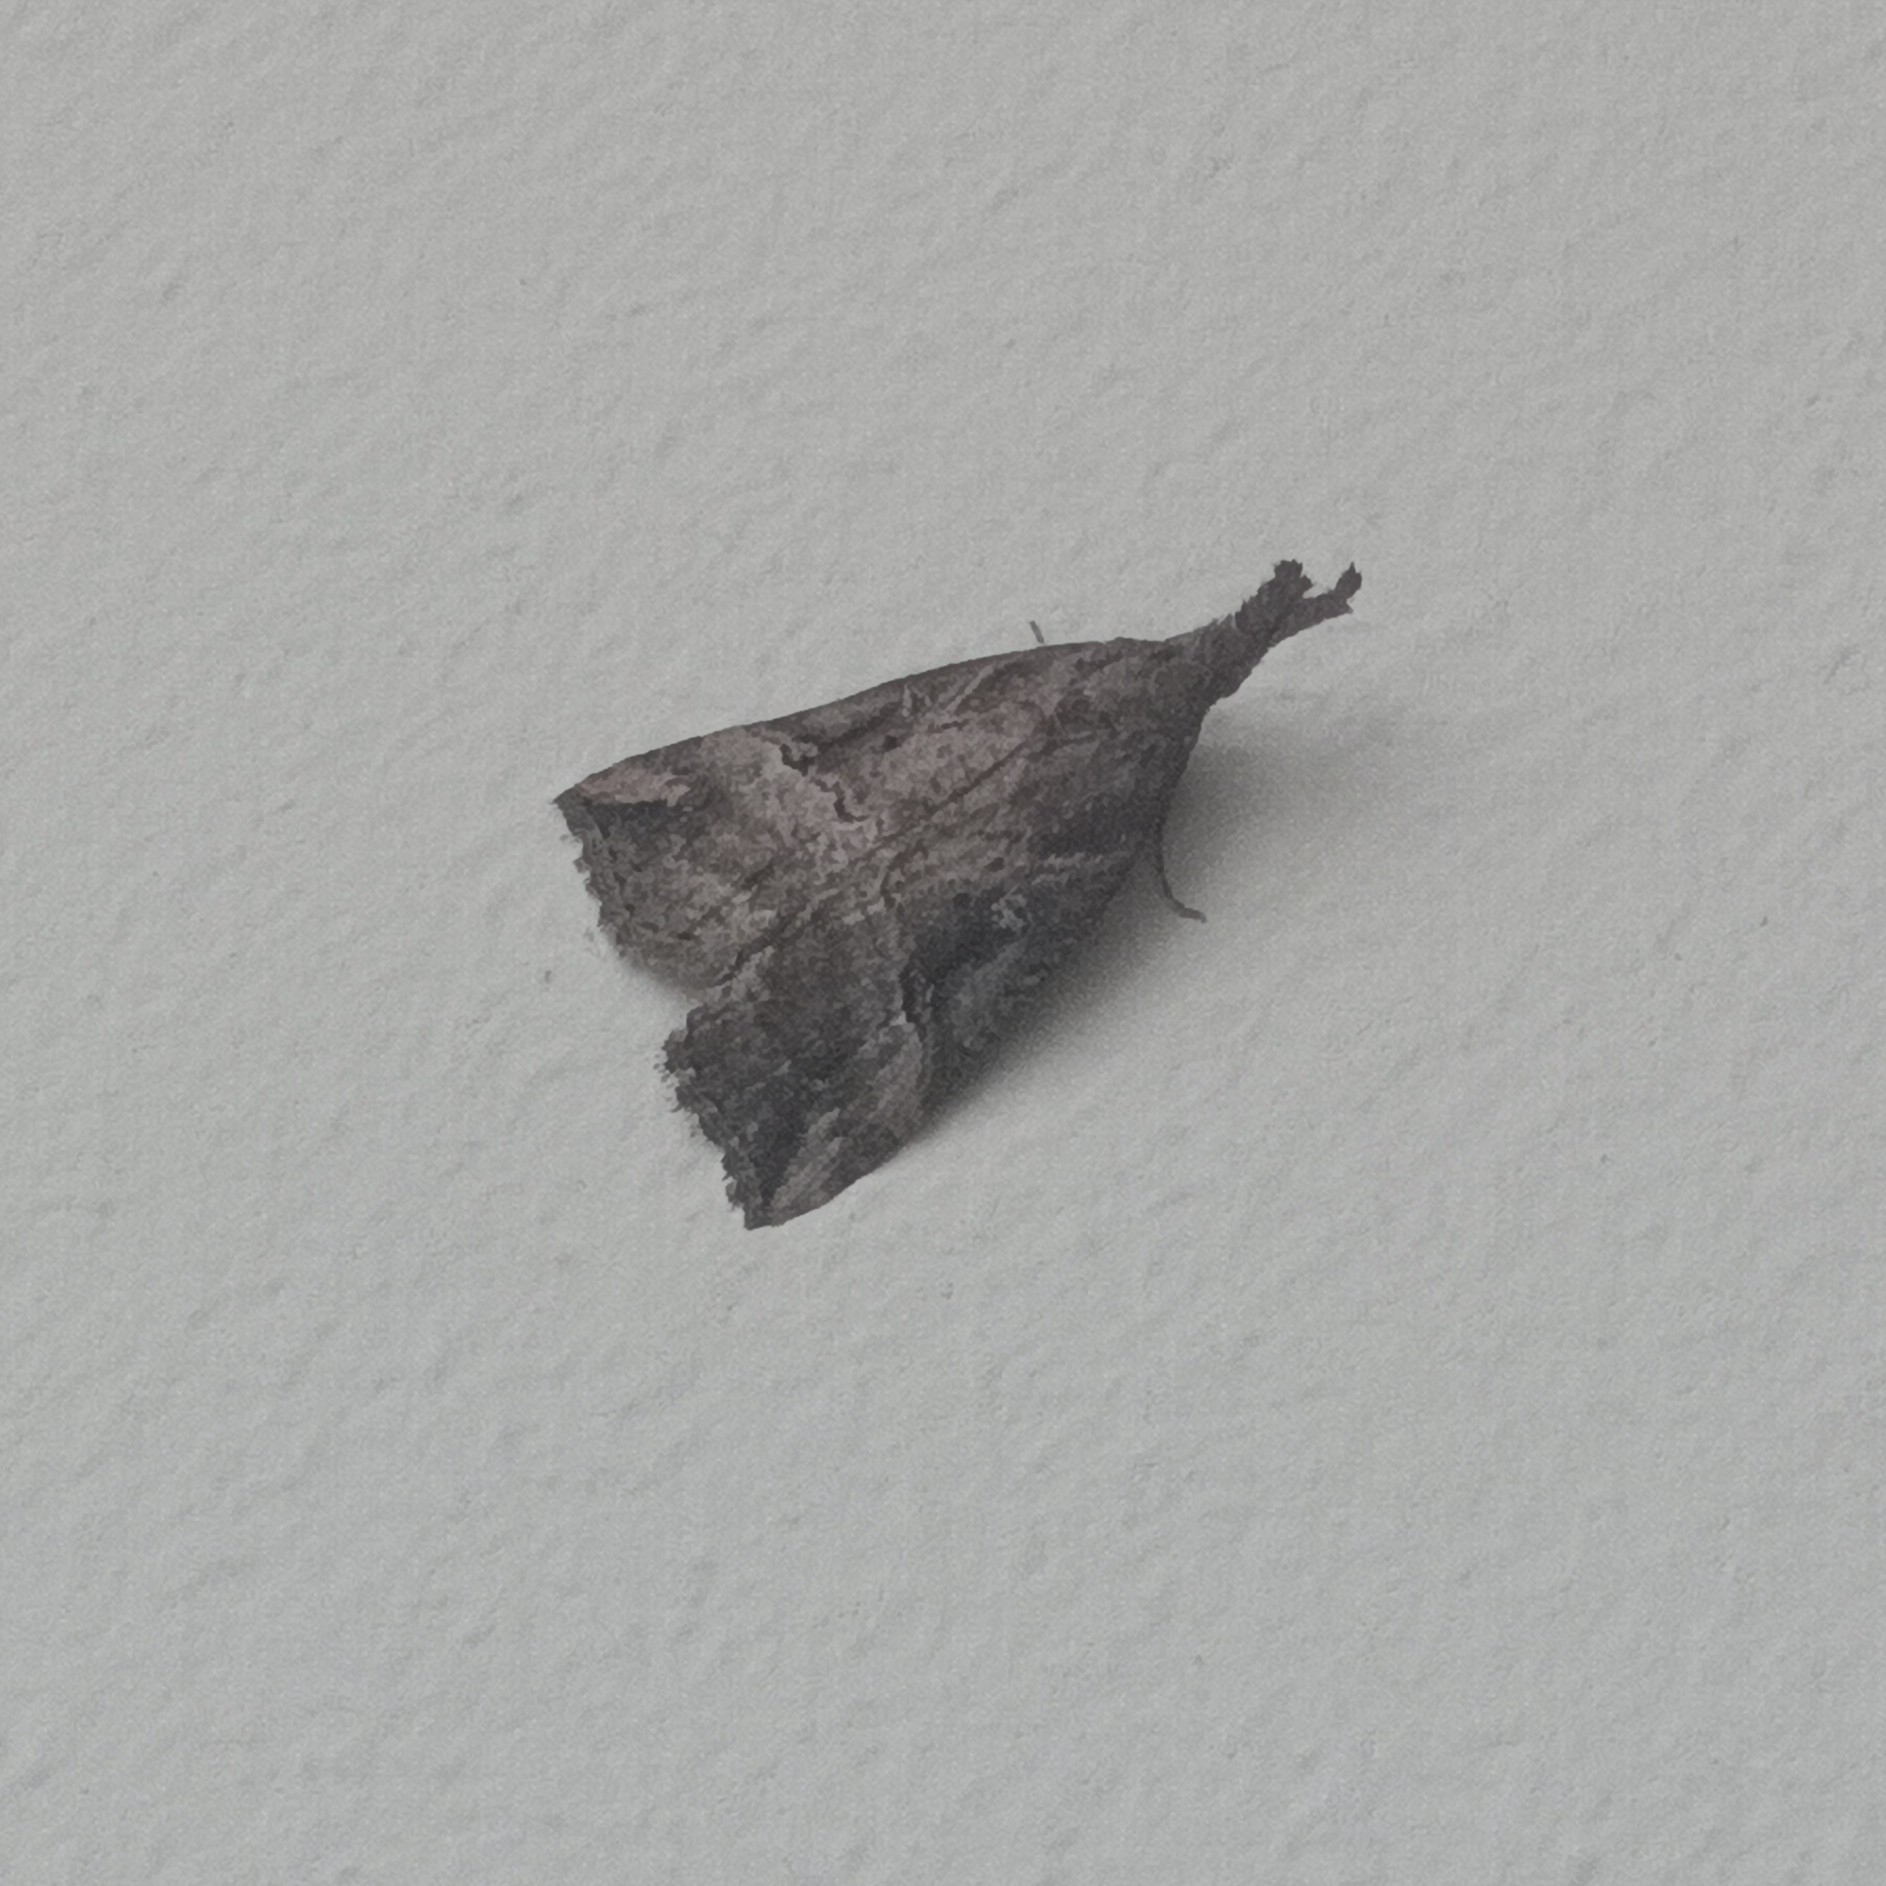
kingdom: Animalia
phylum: Arthropoda
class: Insecta
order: Lepidoptera
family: Erebidae
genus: Hypena
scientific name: Hypena rostralis
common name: Buttoned snout
